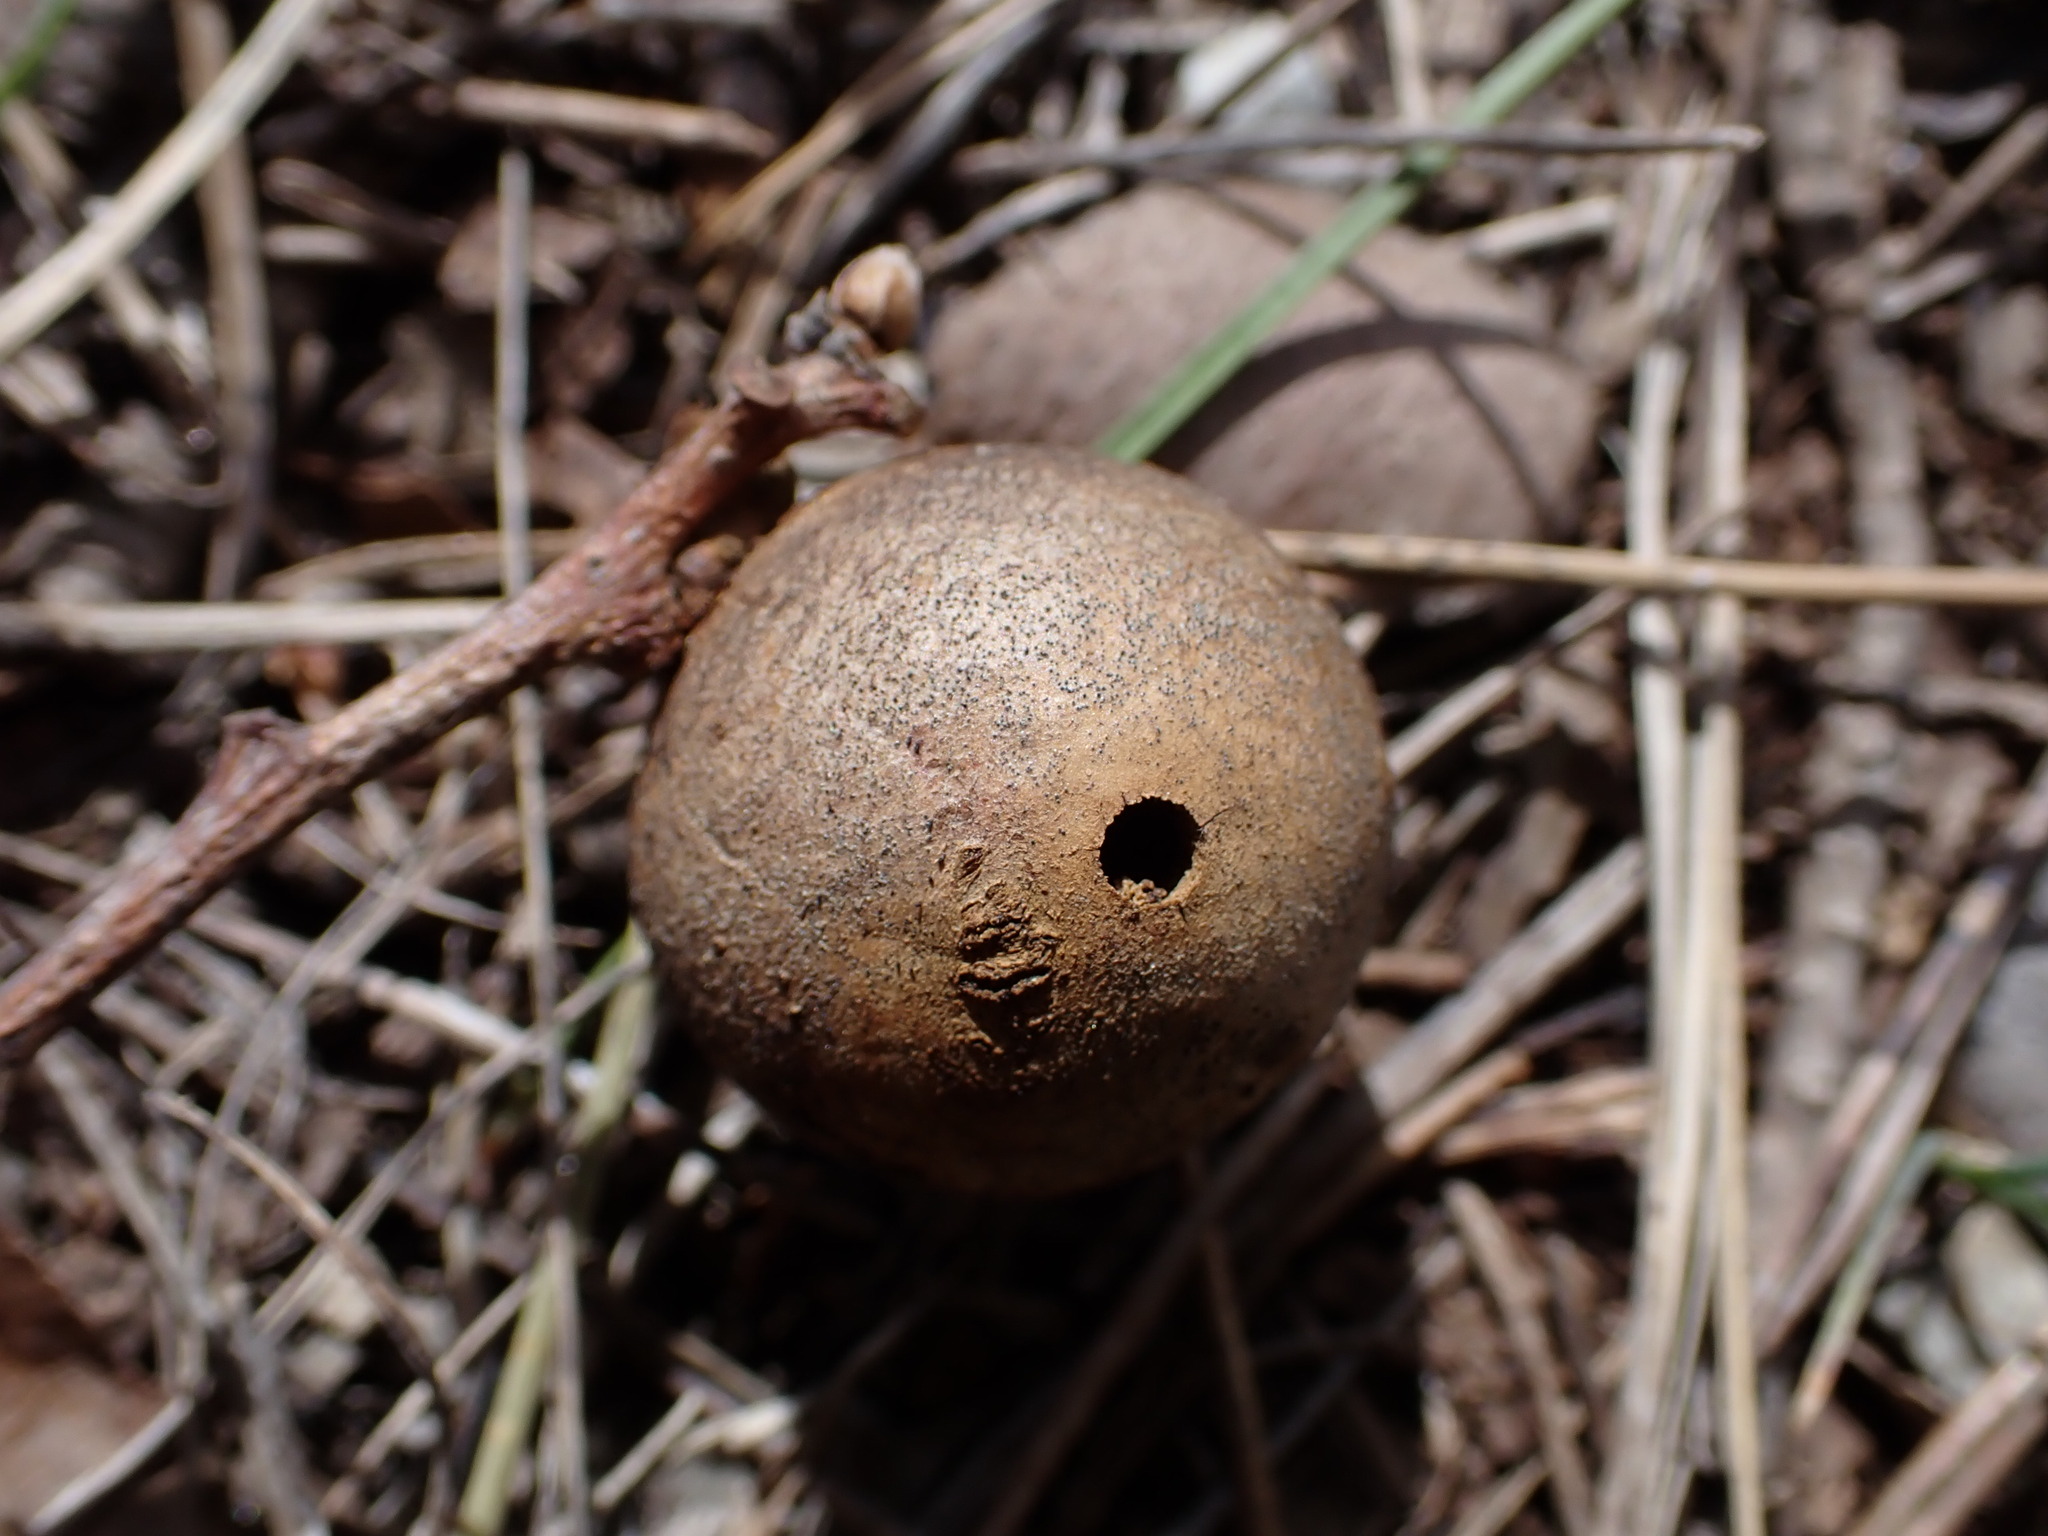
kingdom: Animalia
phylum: Arthropoda
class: Insecta
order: Hymenoptera
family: Cynipidae
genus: Andricus
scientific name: Andricus kollari
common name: Marble gall
